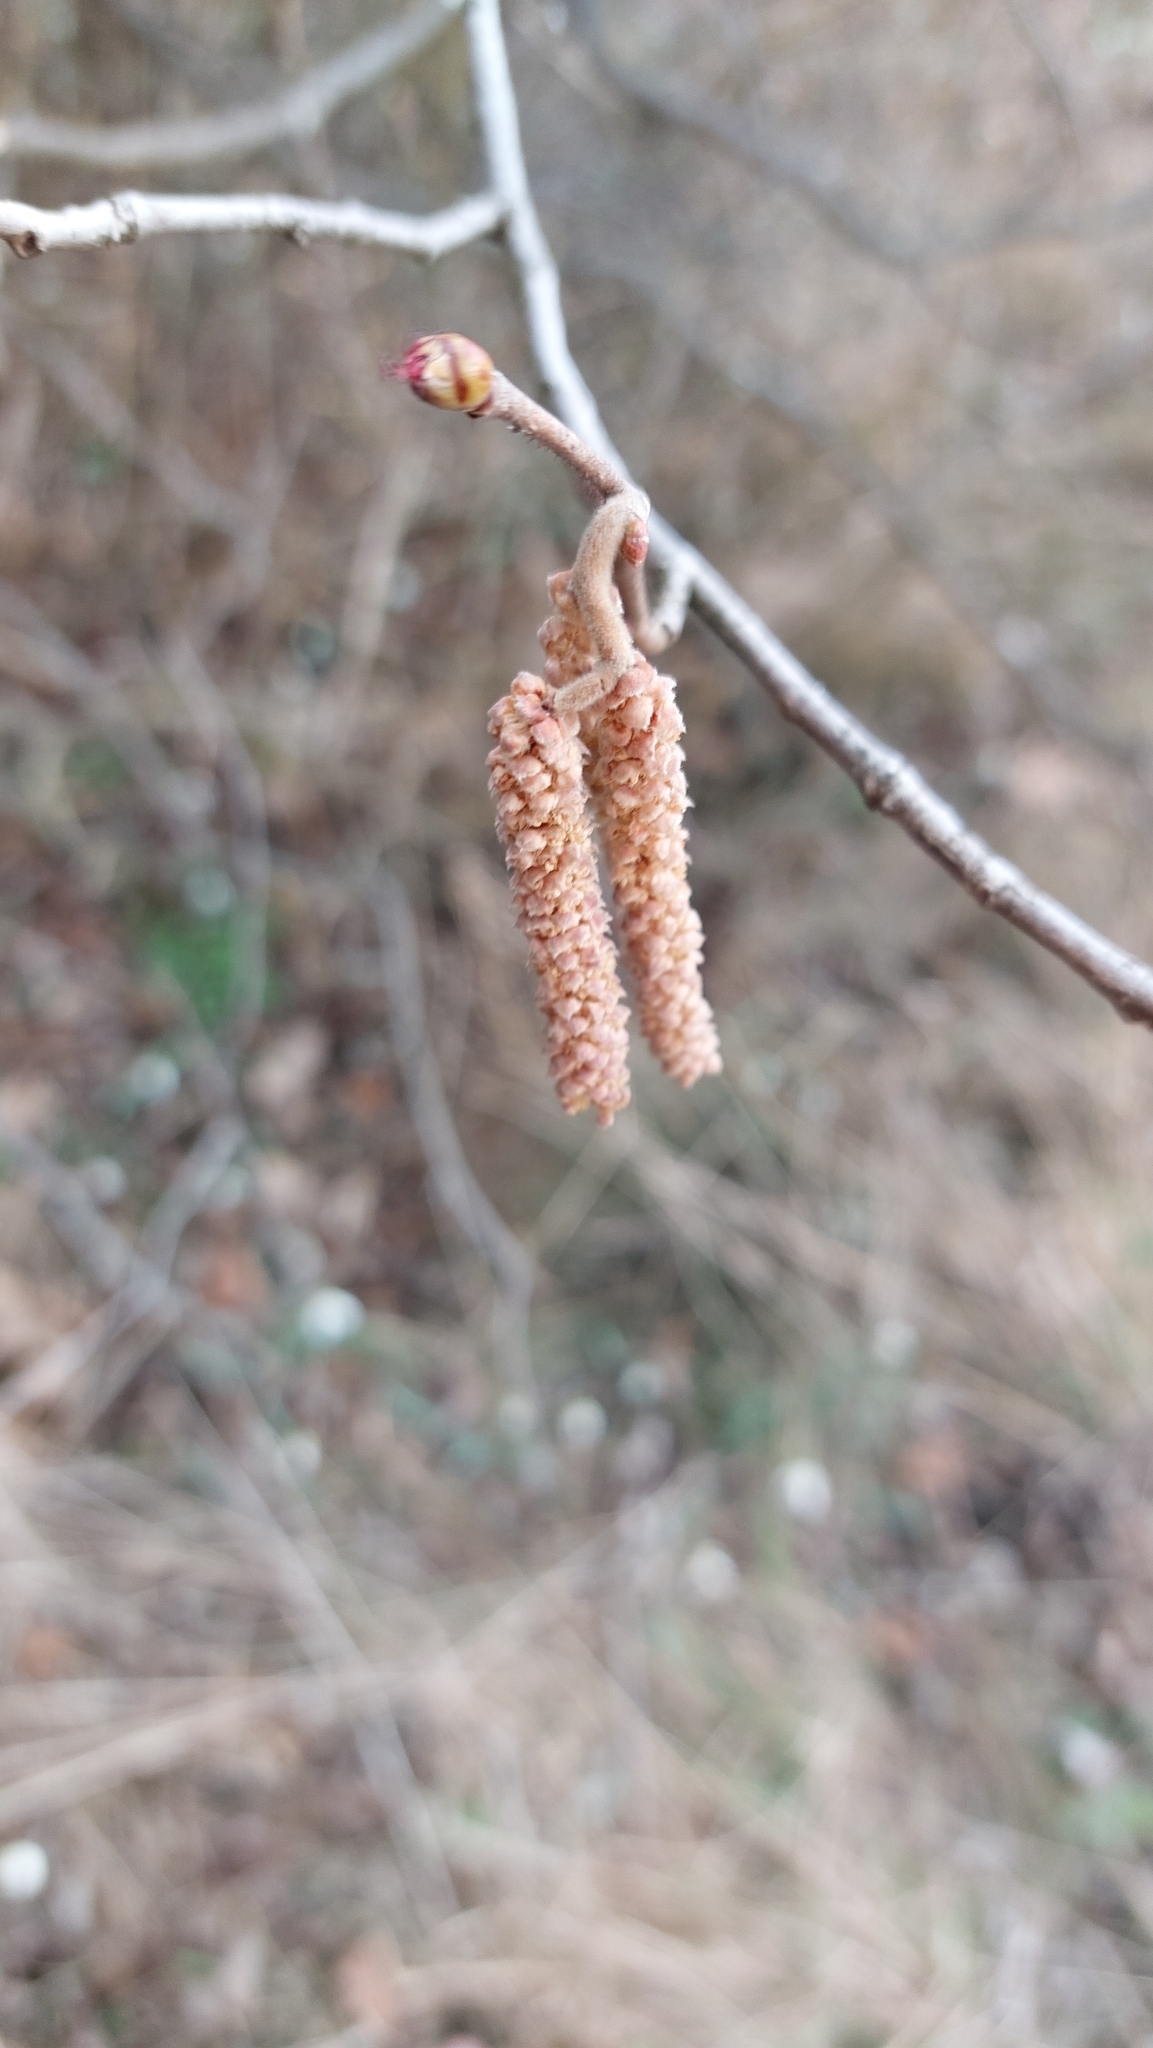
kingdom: Plantae
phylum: Tracheophyta
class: Magnoliopsida
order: Fagales
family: Betulaceae
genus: Corylus
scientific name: Corylus avellana
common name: European hazel
